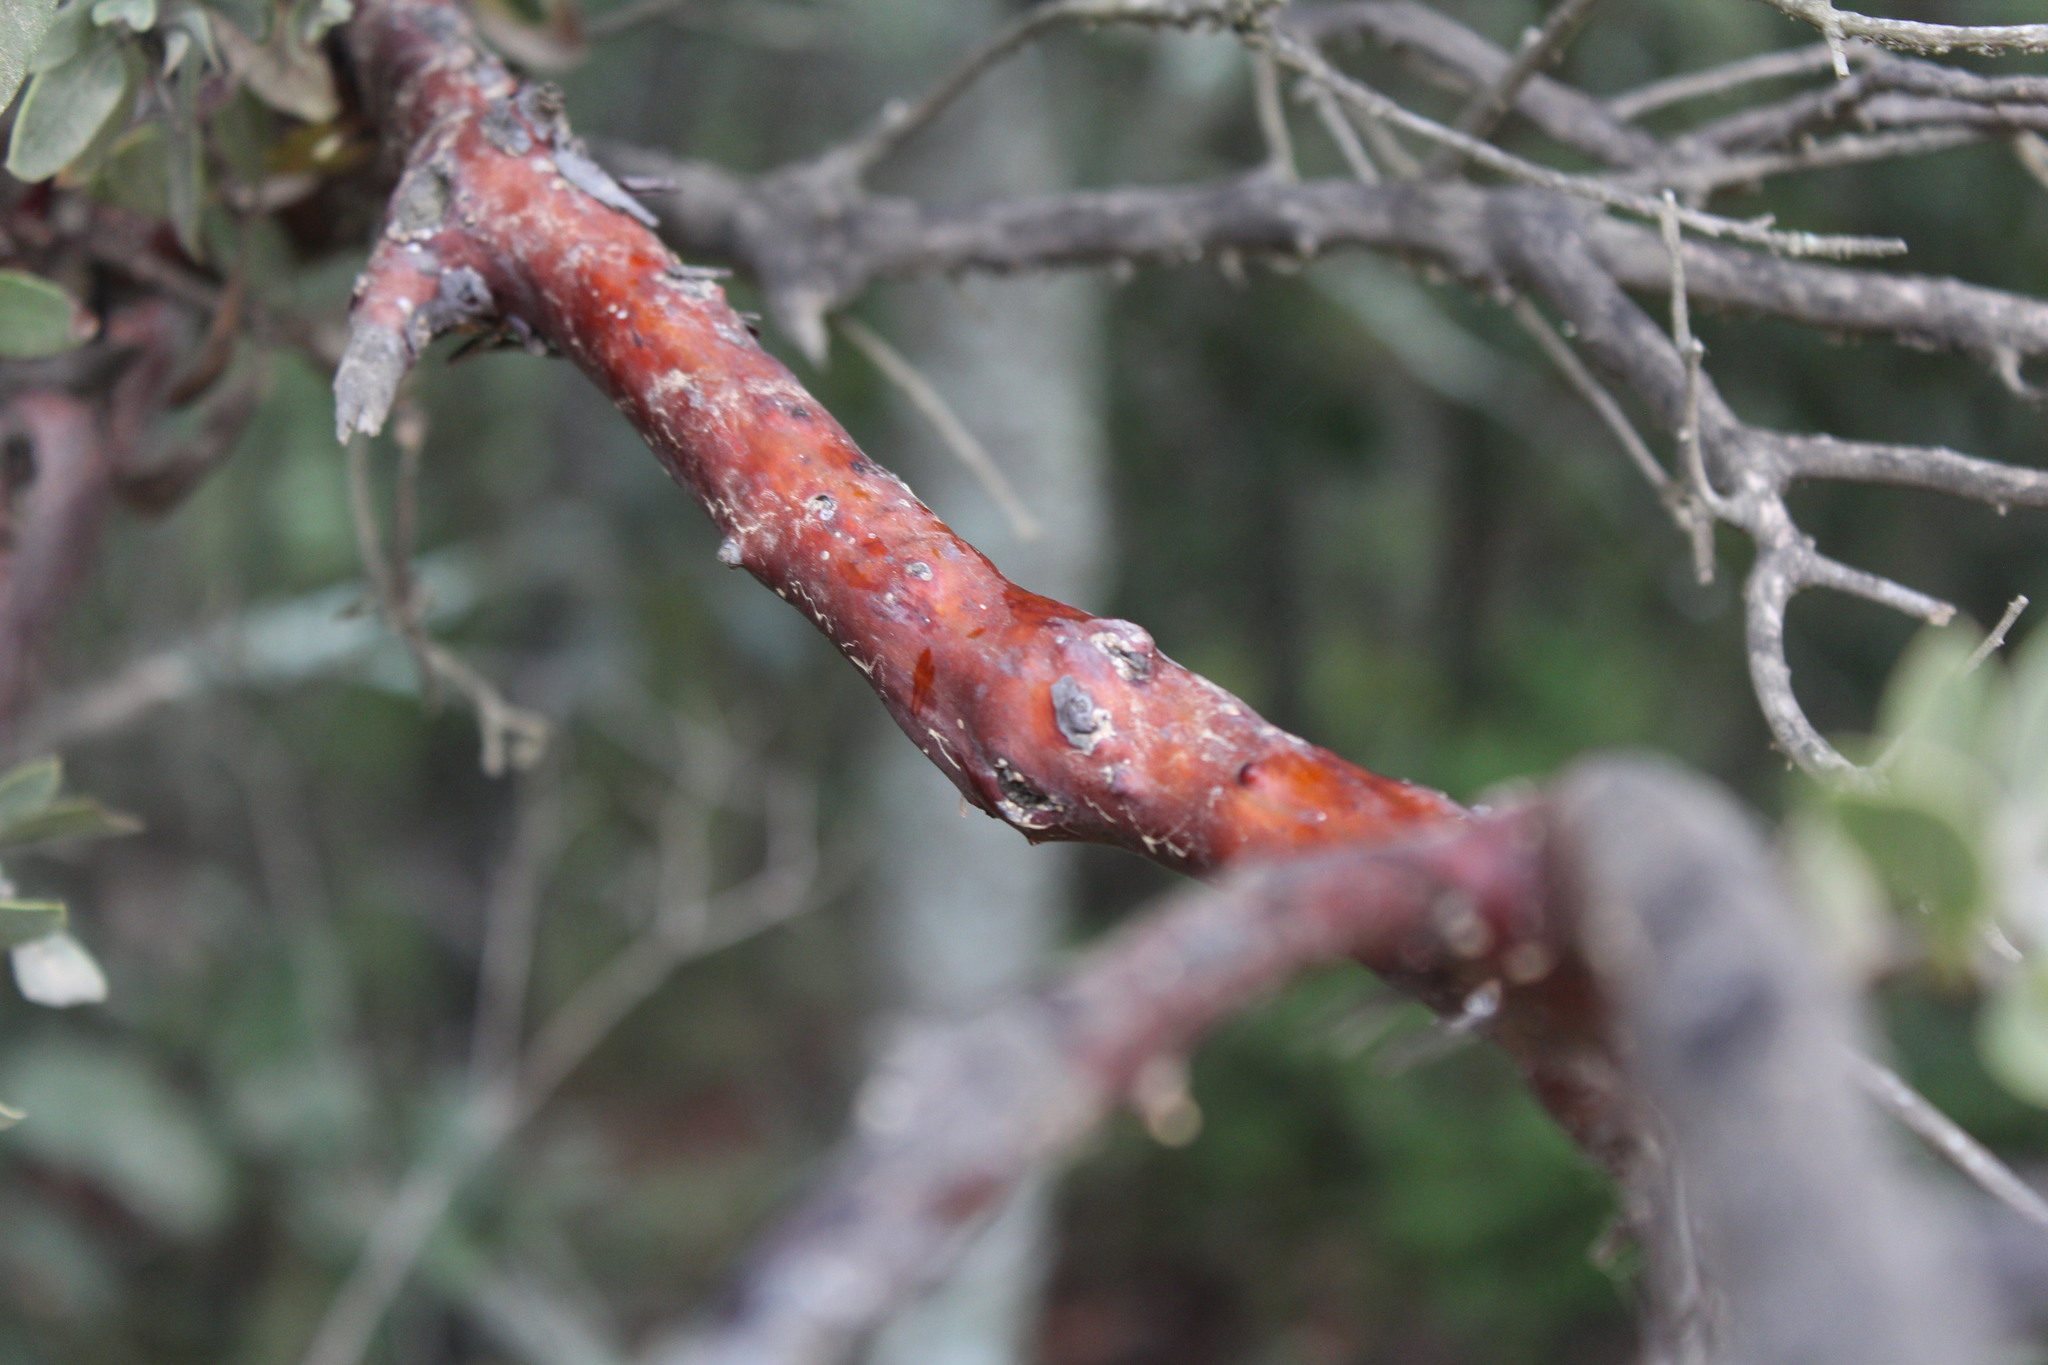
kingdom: Plantae
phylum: Tracheophyta
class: Magnoliopsida
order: Ericales
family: Ericaceae
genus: Arctostaphylos
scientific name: Arctostaphylos pungens
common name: Mexican manzanita
